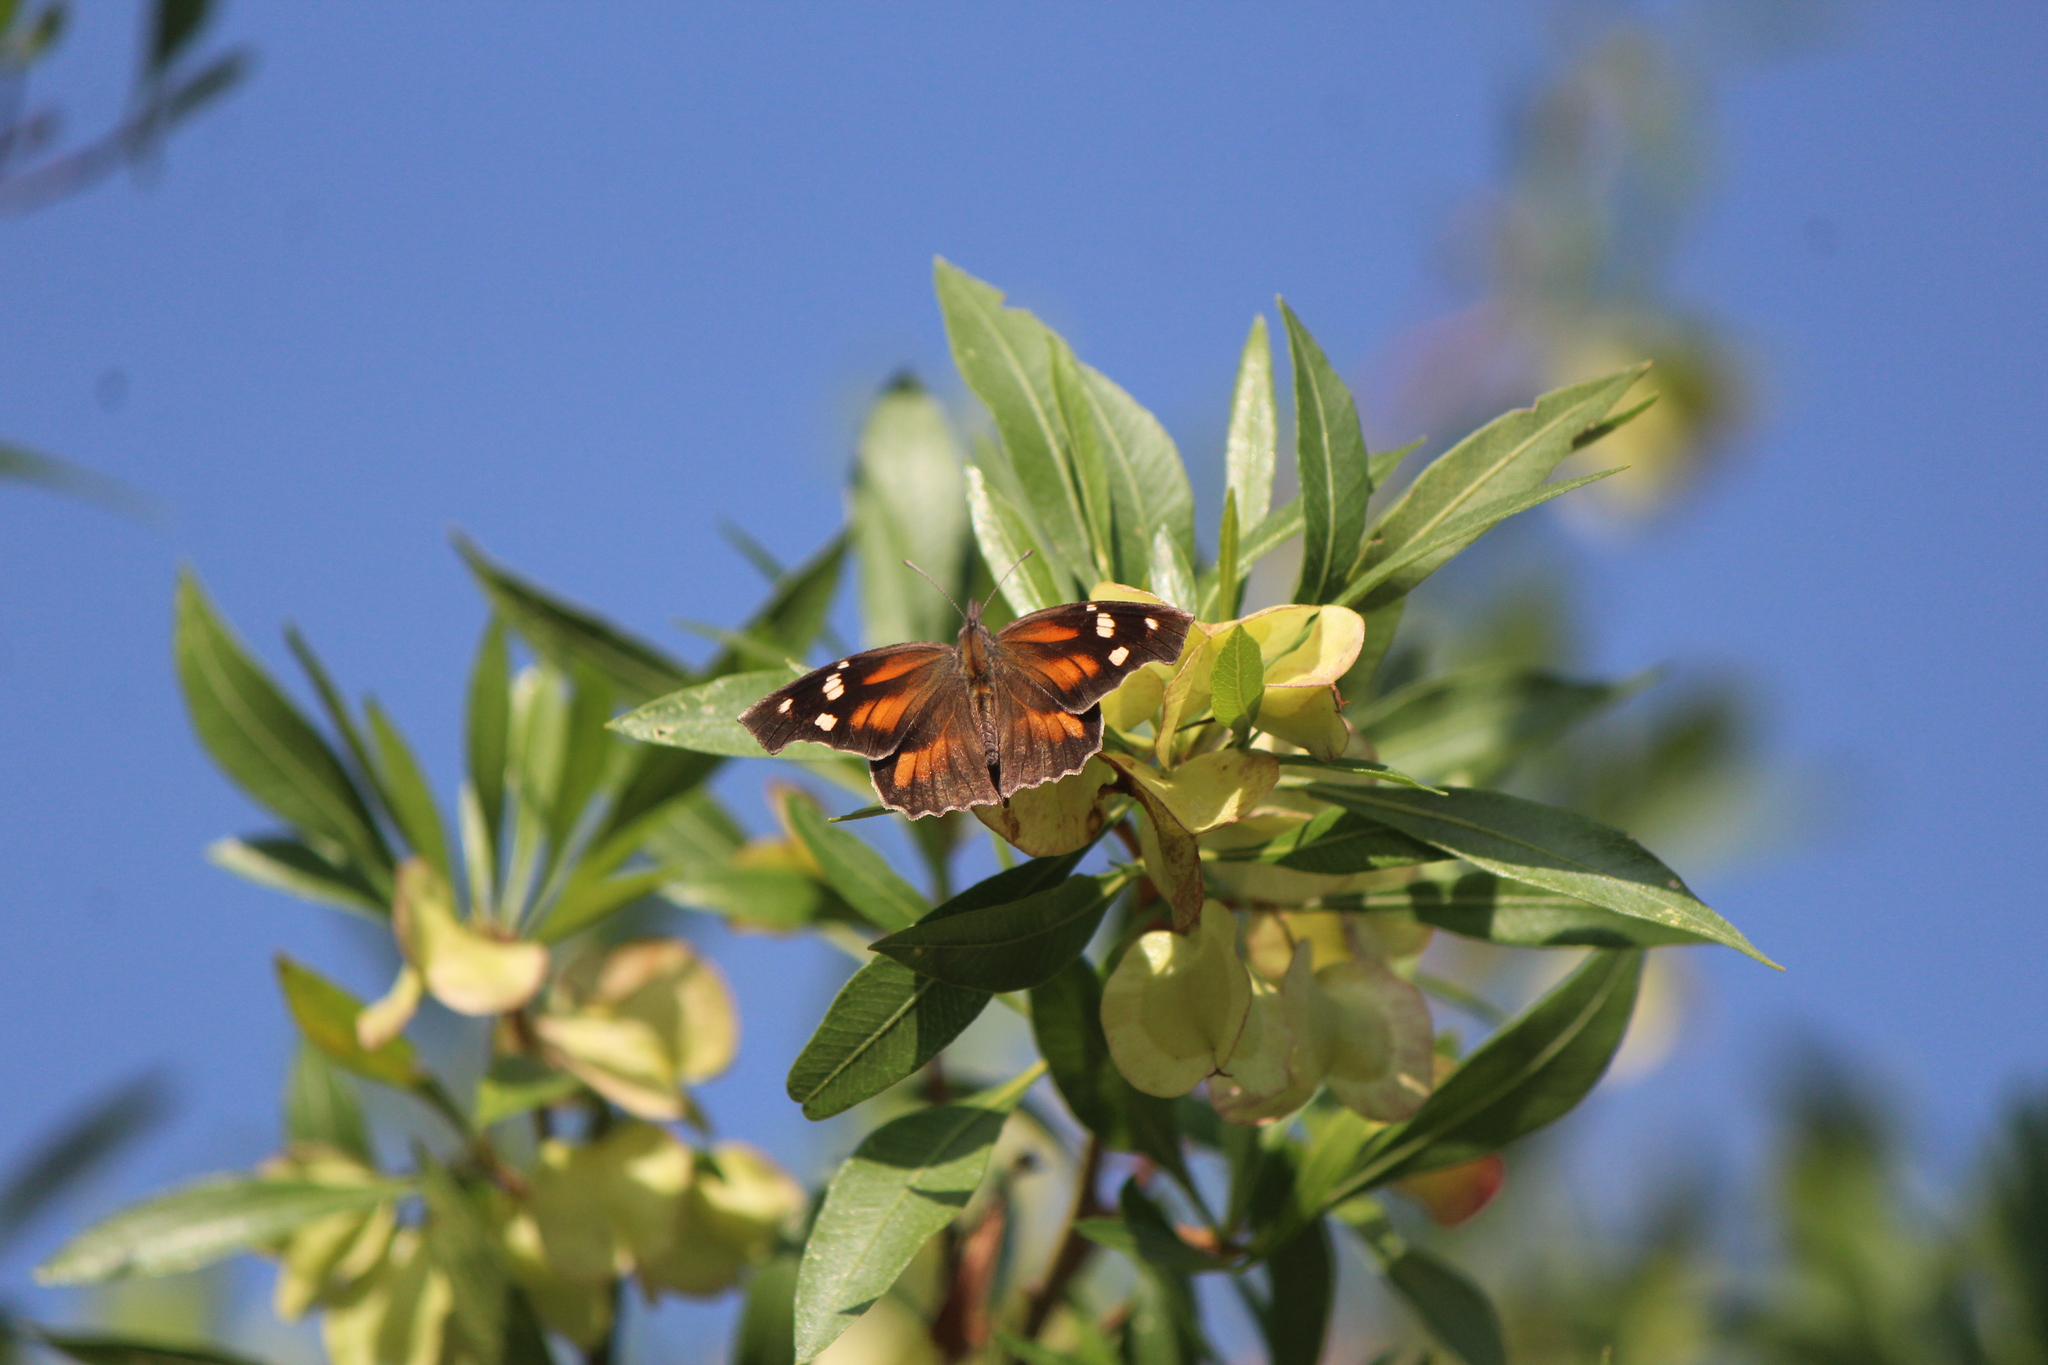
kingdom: Animalia
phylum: Arthropoda
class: Insecta
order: Lepidoptera
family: Nymphalidae
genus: Libytheana
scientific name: Libytheana carinenta
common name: American snout
